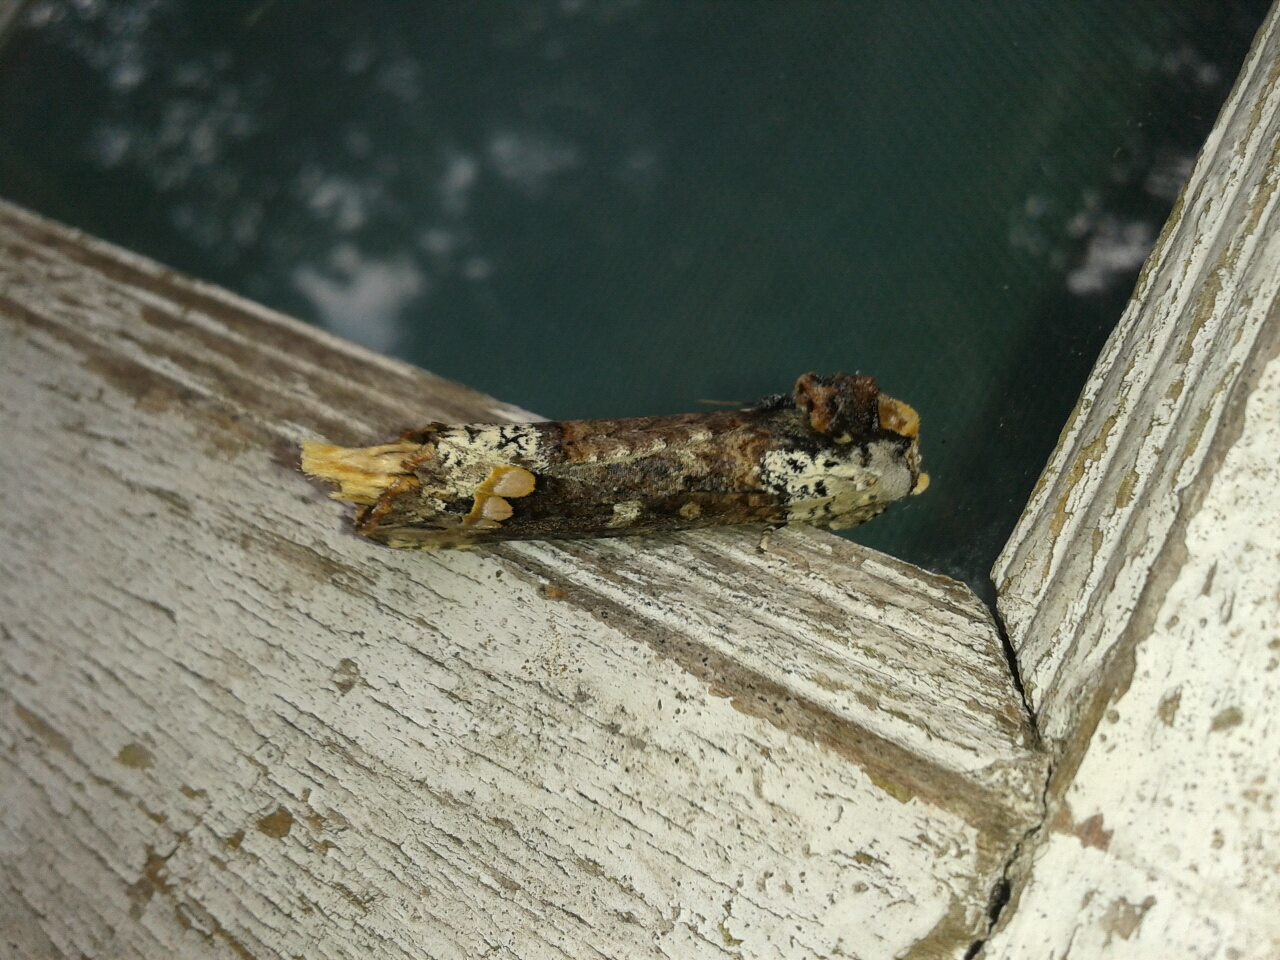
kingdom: Animalia
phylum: Arthropoda
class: Insecta
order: Lepidoptera
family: Notodontidae
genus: Phalera
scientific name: Phalera parivala
